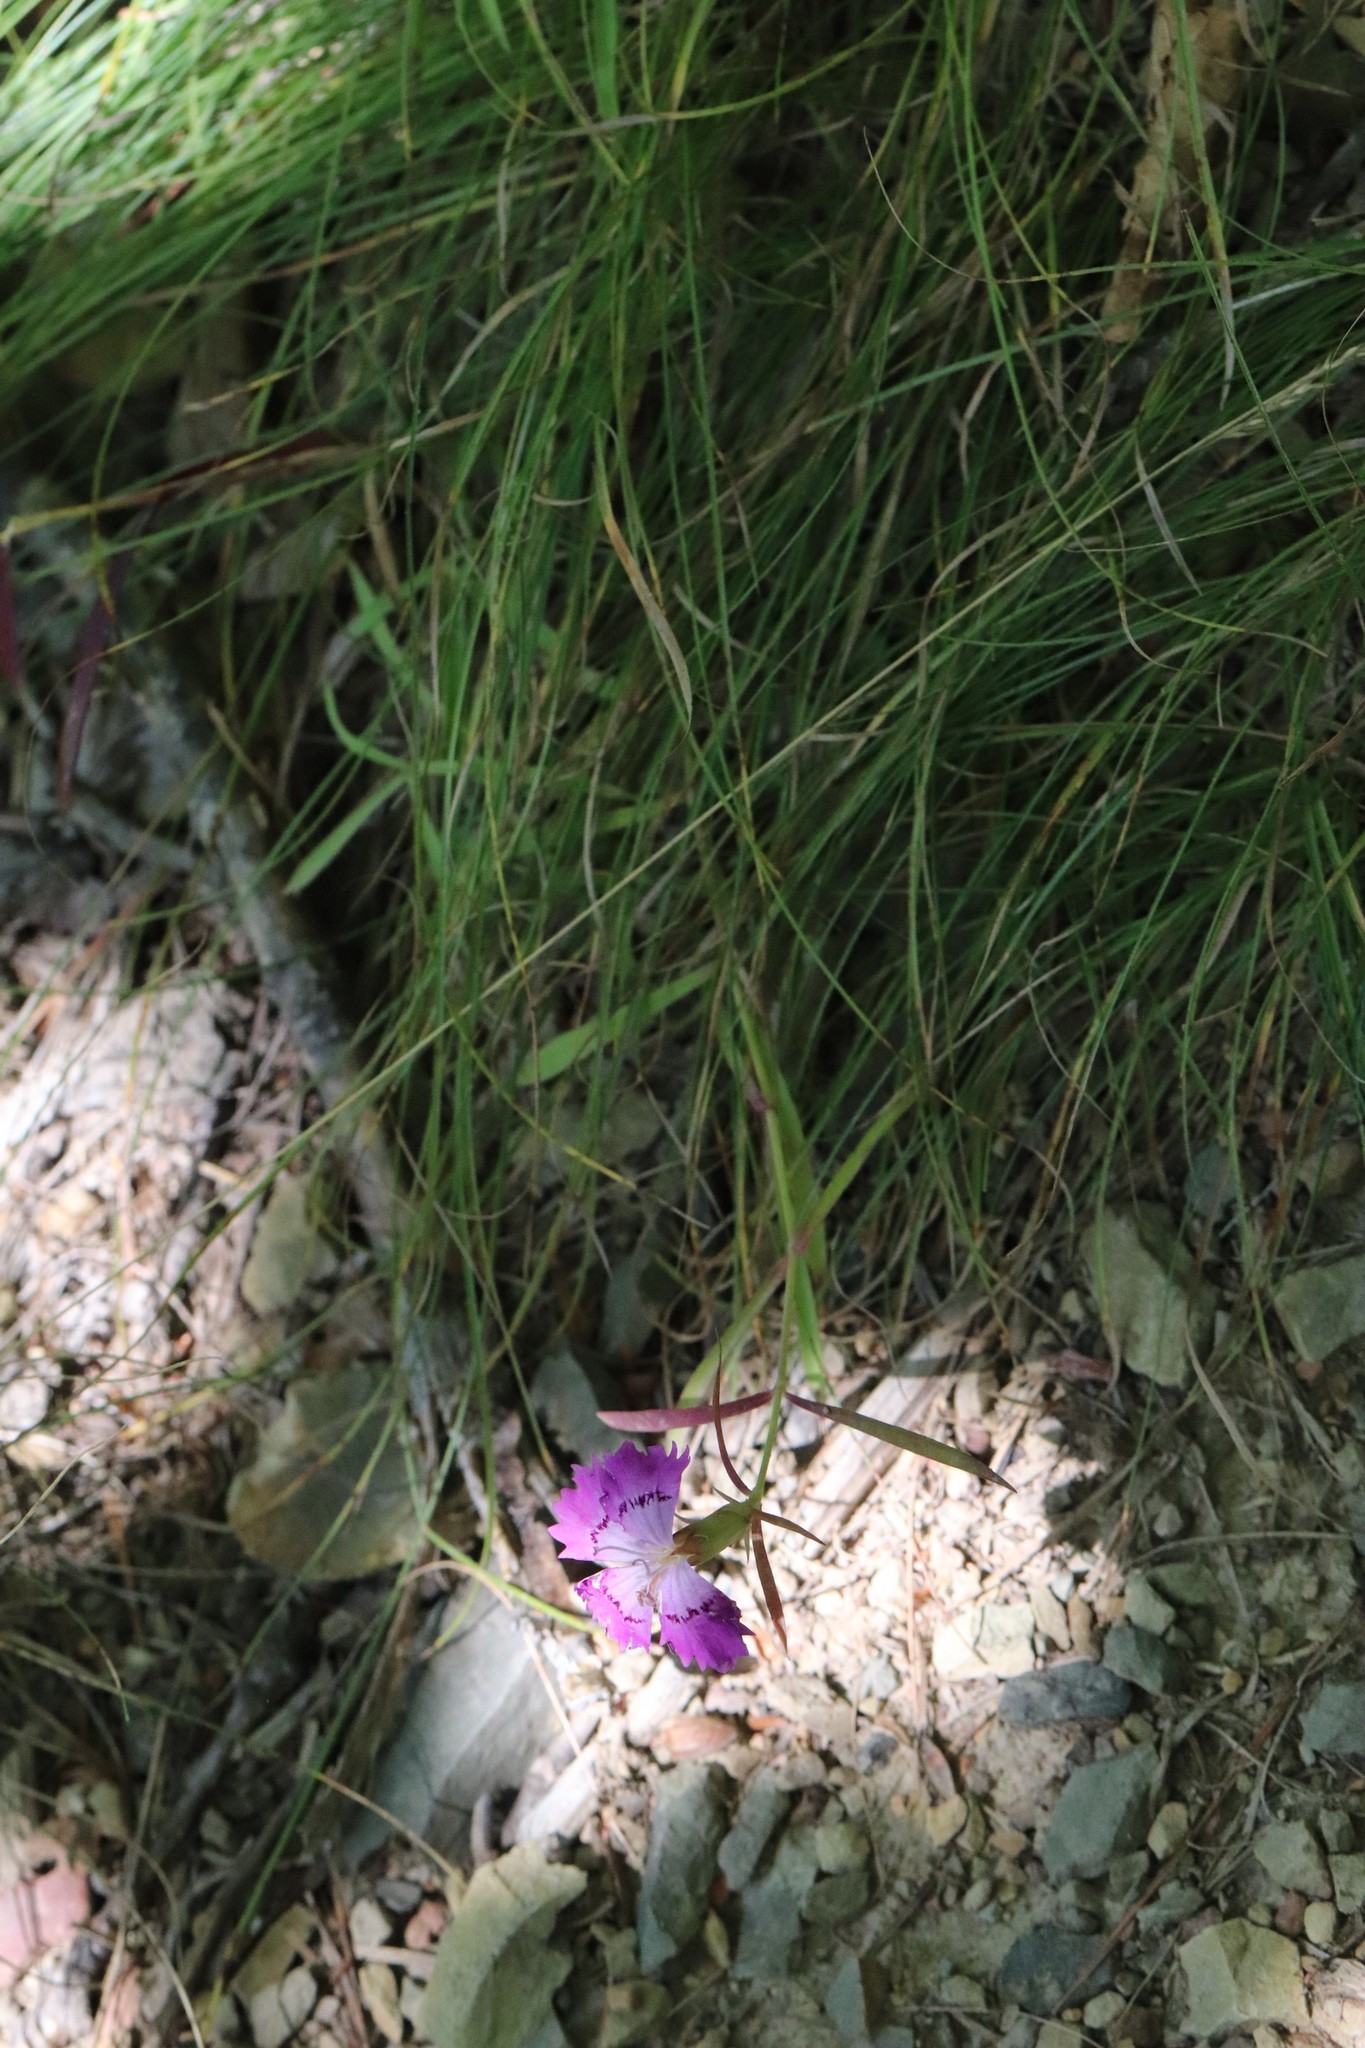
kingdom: Plantae
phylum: Tracheophyta
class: Magnoliopsida
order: Caryophyllales
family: Caryophyllaceae
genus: Dianthus
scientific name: Dianthus chinensis
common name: Rainbow pink
